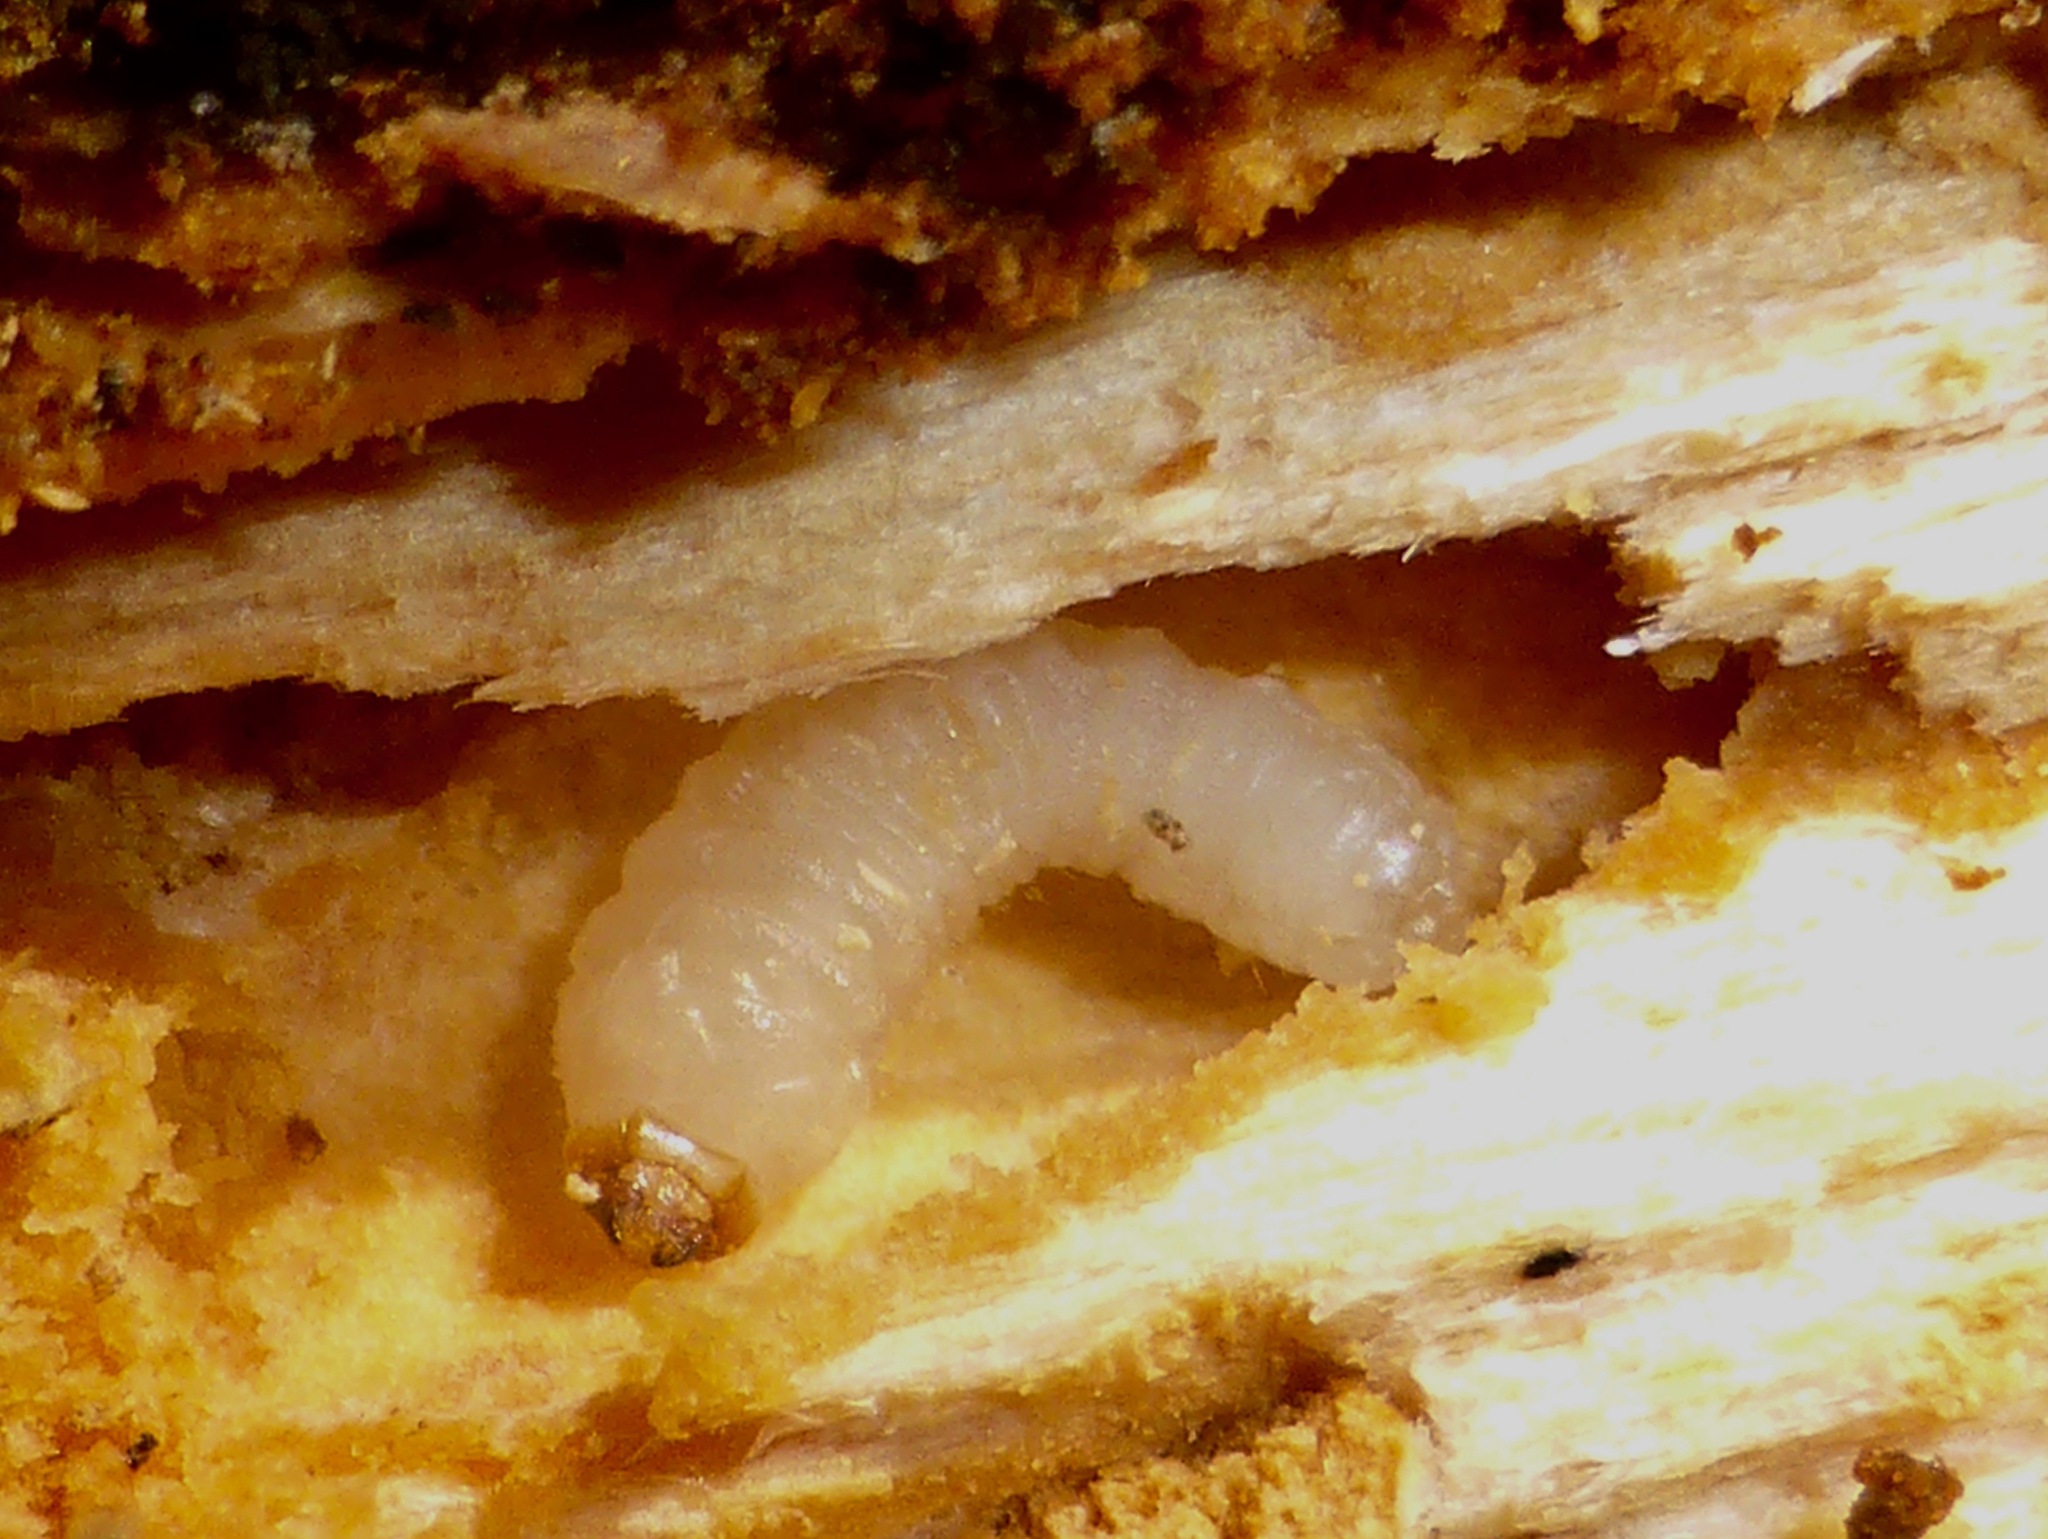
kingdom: Animalia
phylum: Arthropoda
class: Insecta
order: Coleoptera
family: Cerambycidae
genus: Prionoplus
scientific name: Prionoplus reticularis
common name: Huhu beetle
